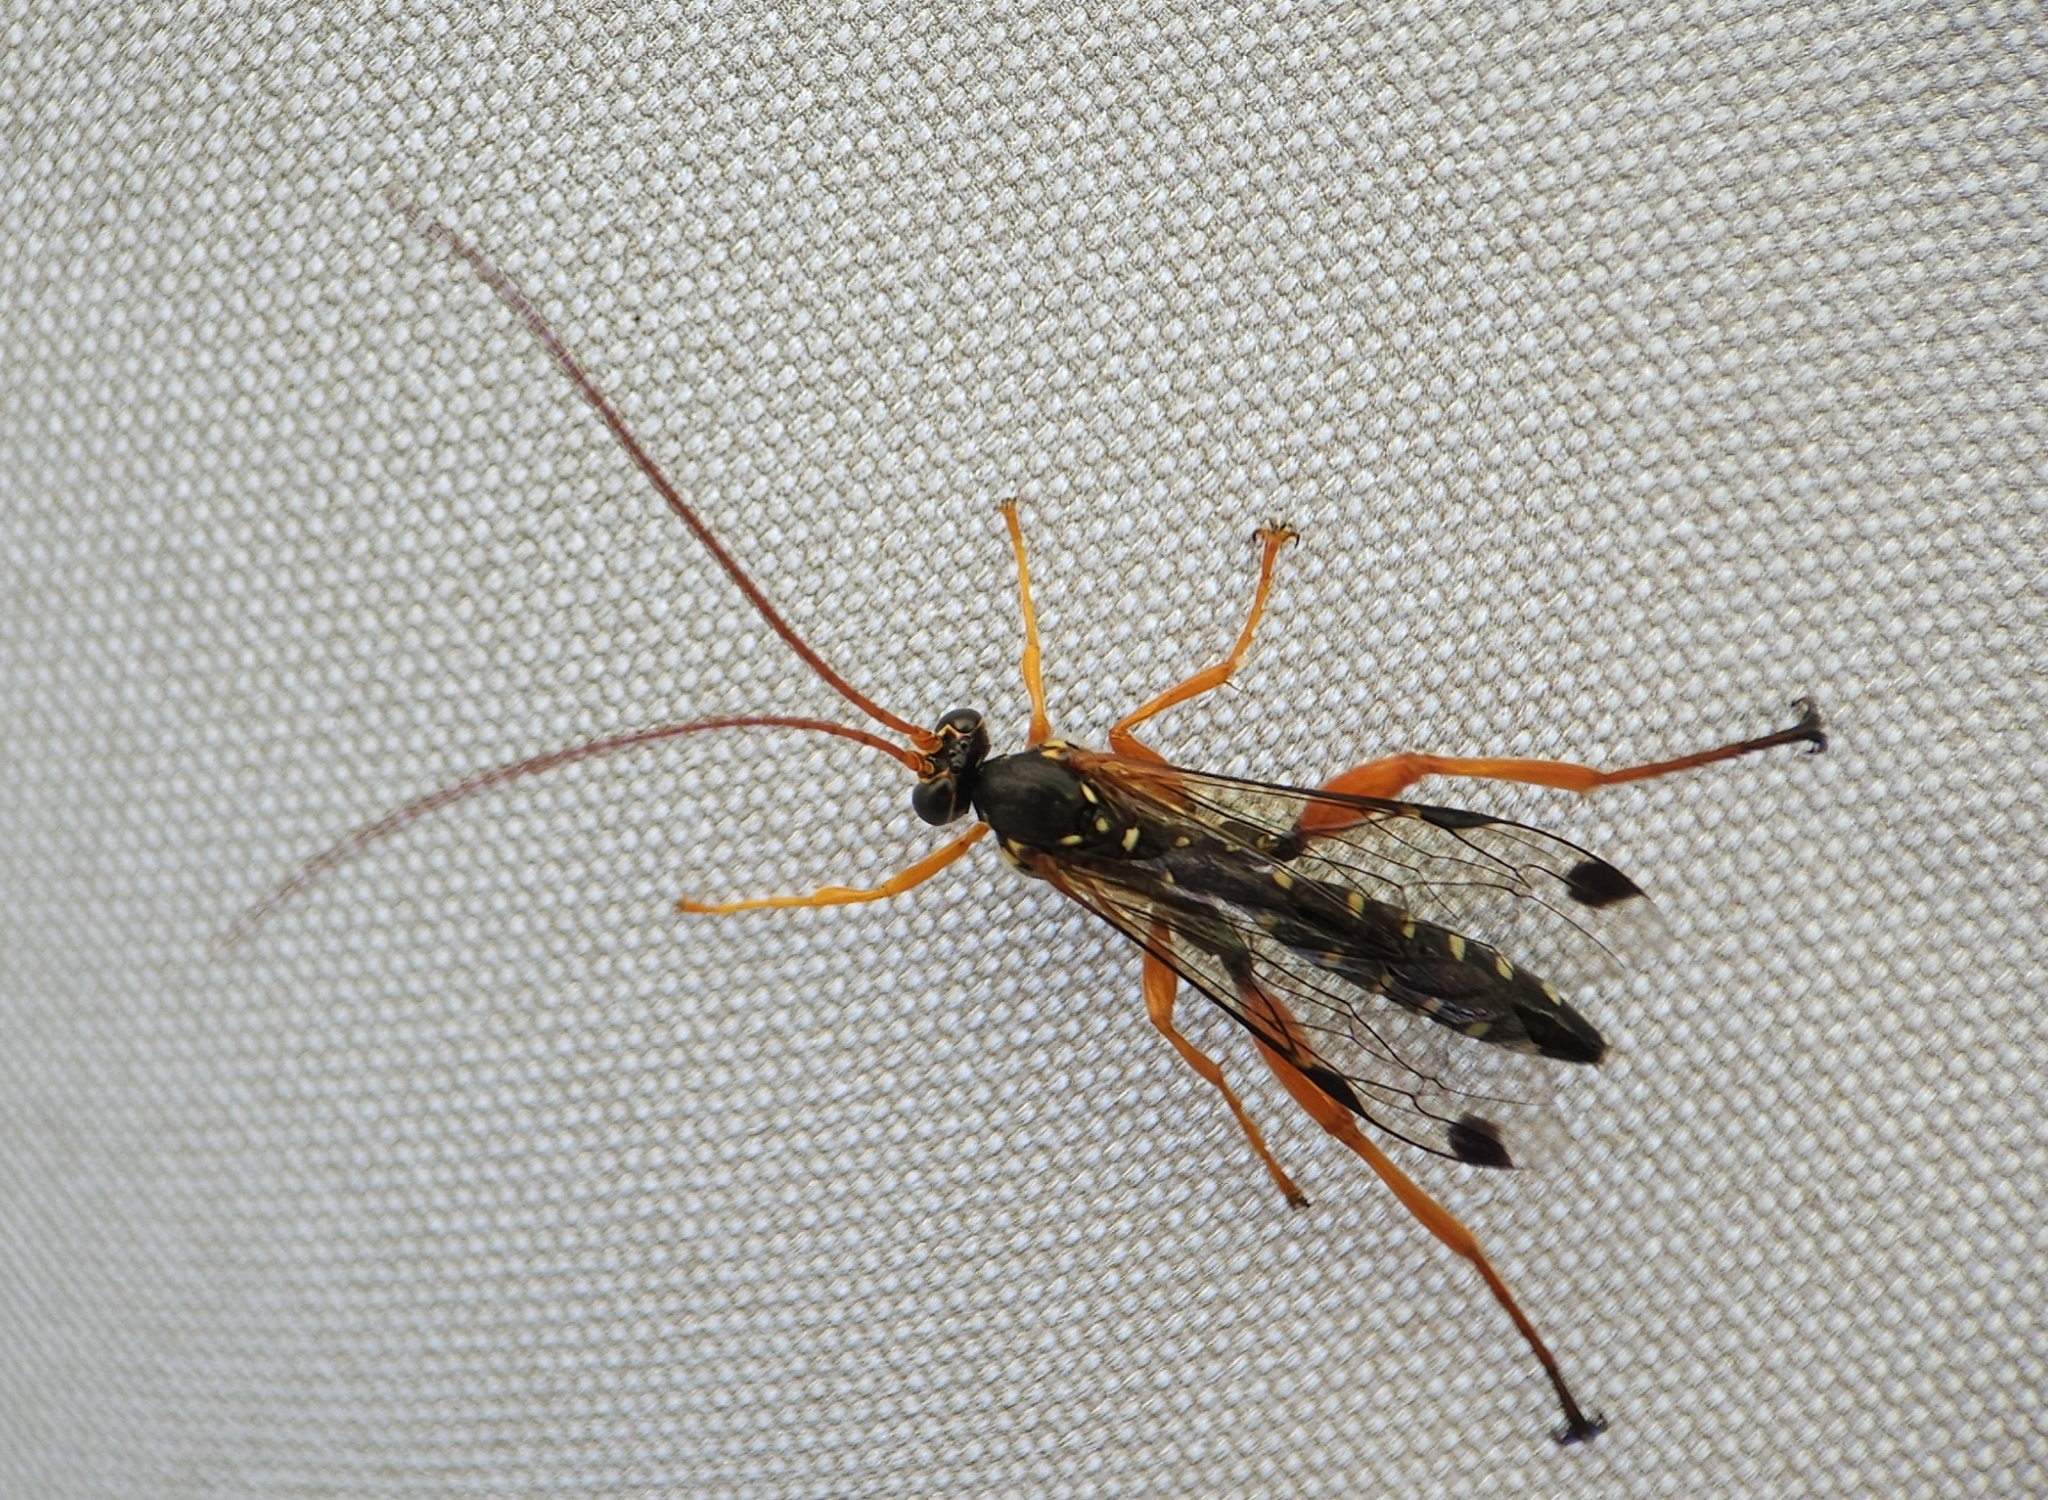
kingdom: Animalia
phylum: Arthropoda
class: Insecta
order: Hymenoptera
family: Ichneumonidae
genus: Echthromorpha
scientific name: Echthromorpha intricatoria
